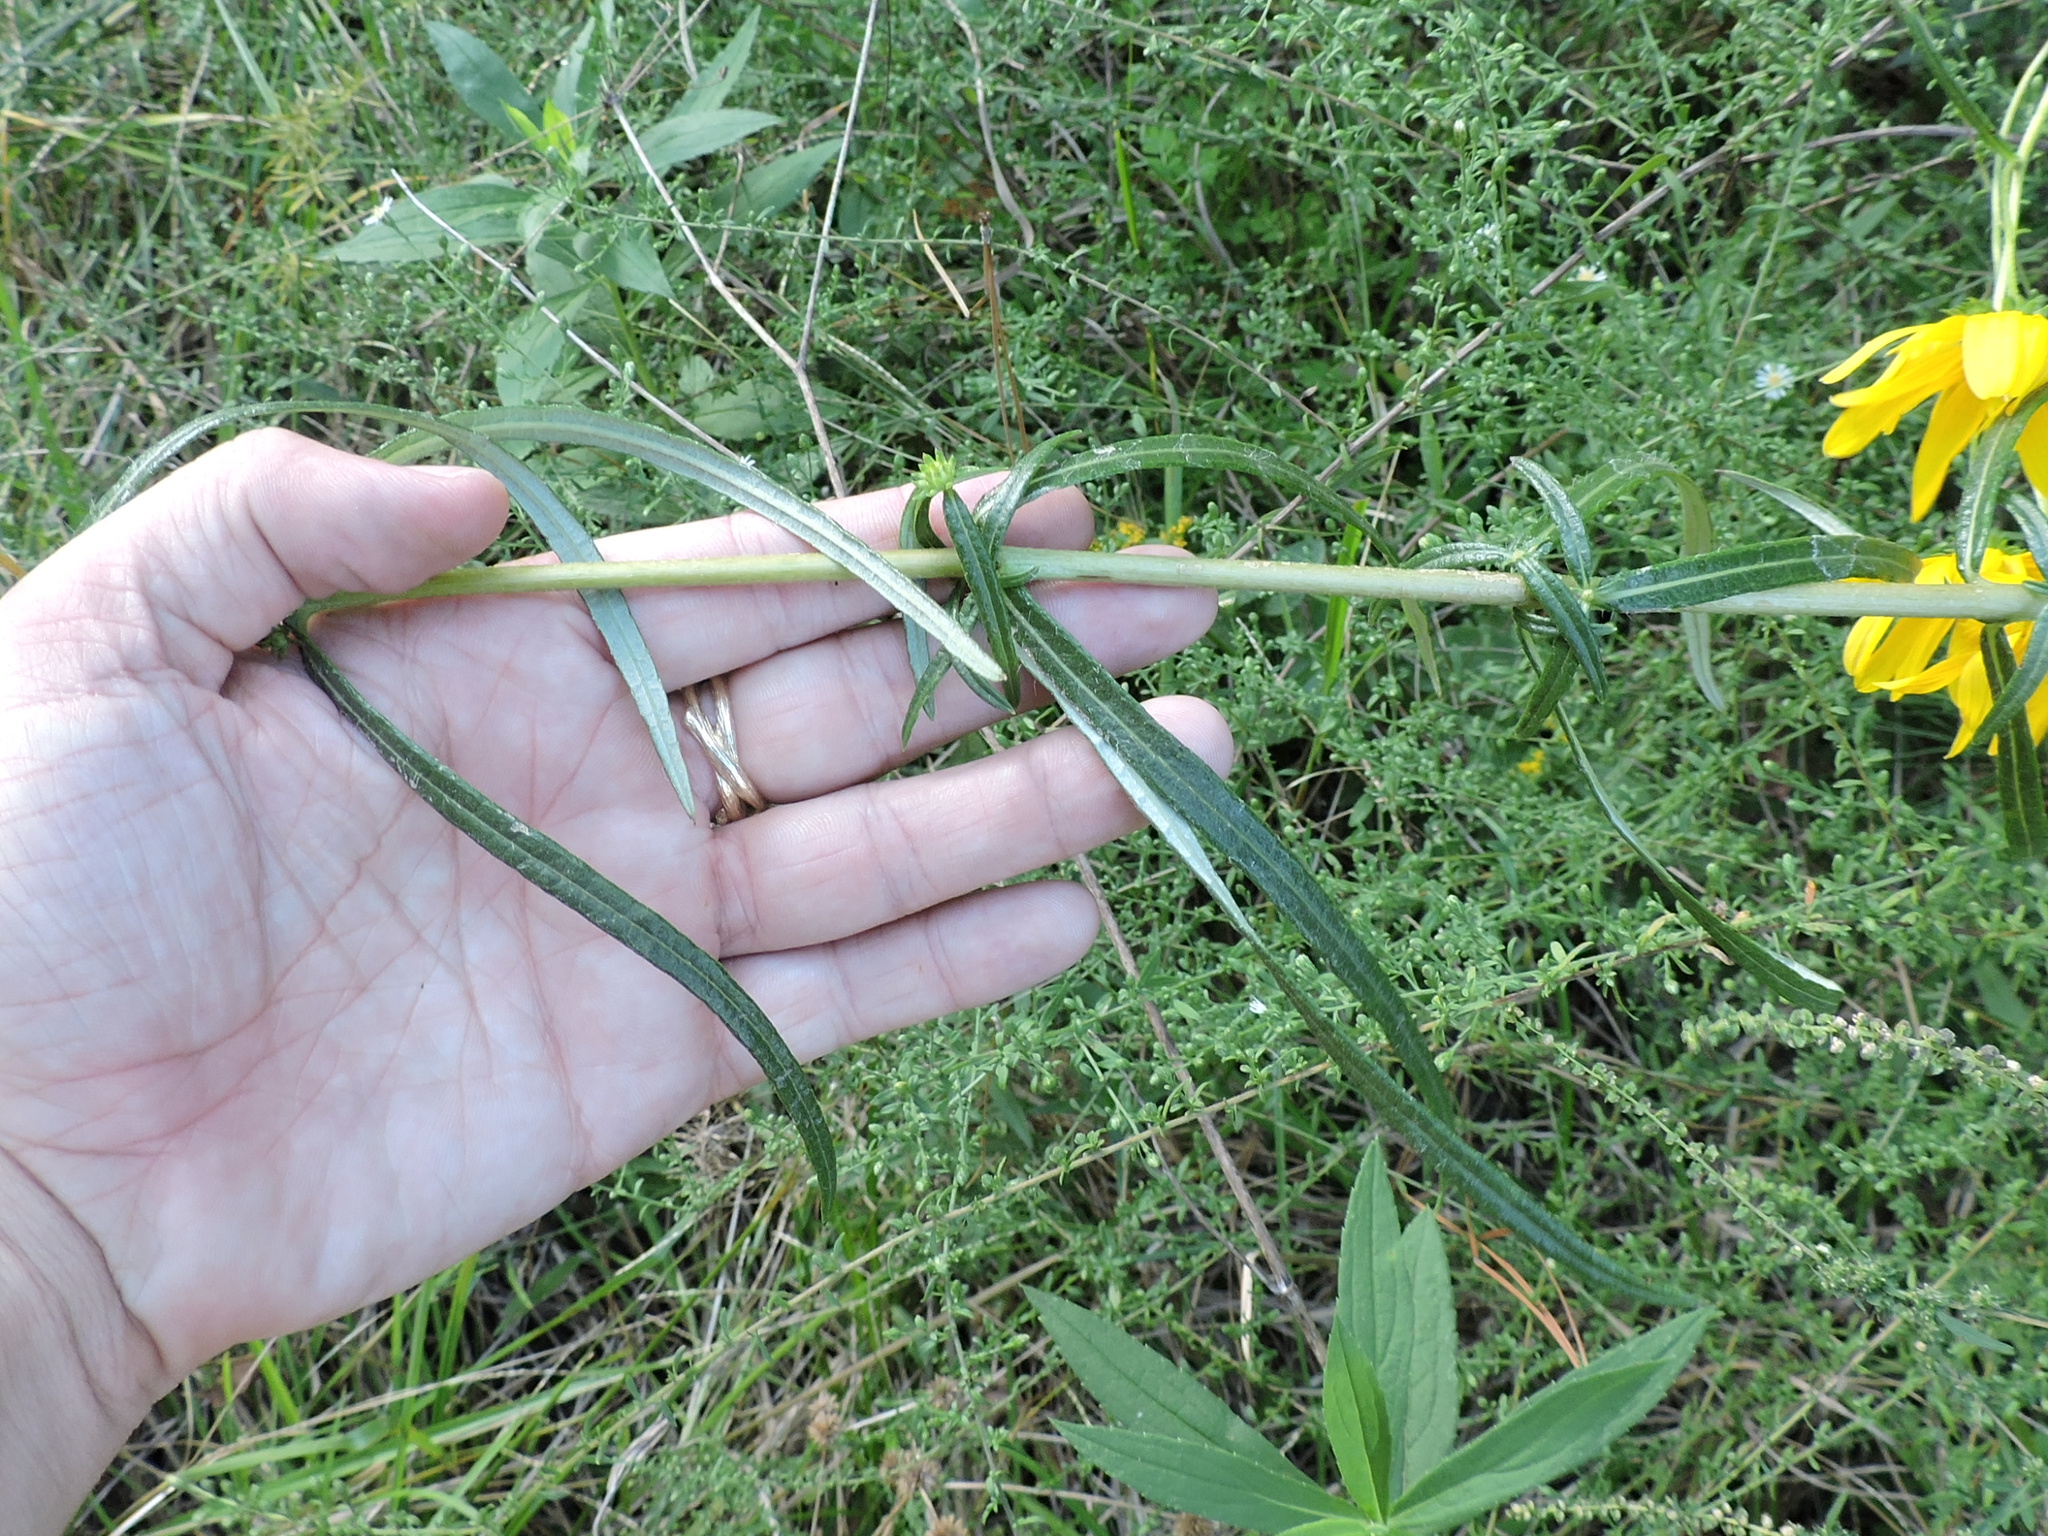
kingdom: Plantae
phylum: Tracheophyta
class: Magnoliopsida
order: Asterales
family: Asteraceae
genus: Helianthus
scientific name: Helianthus angustifolius
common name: Swamp sunflower
